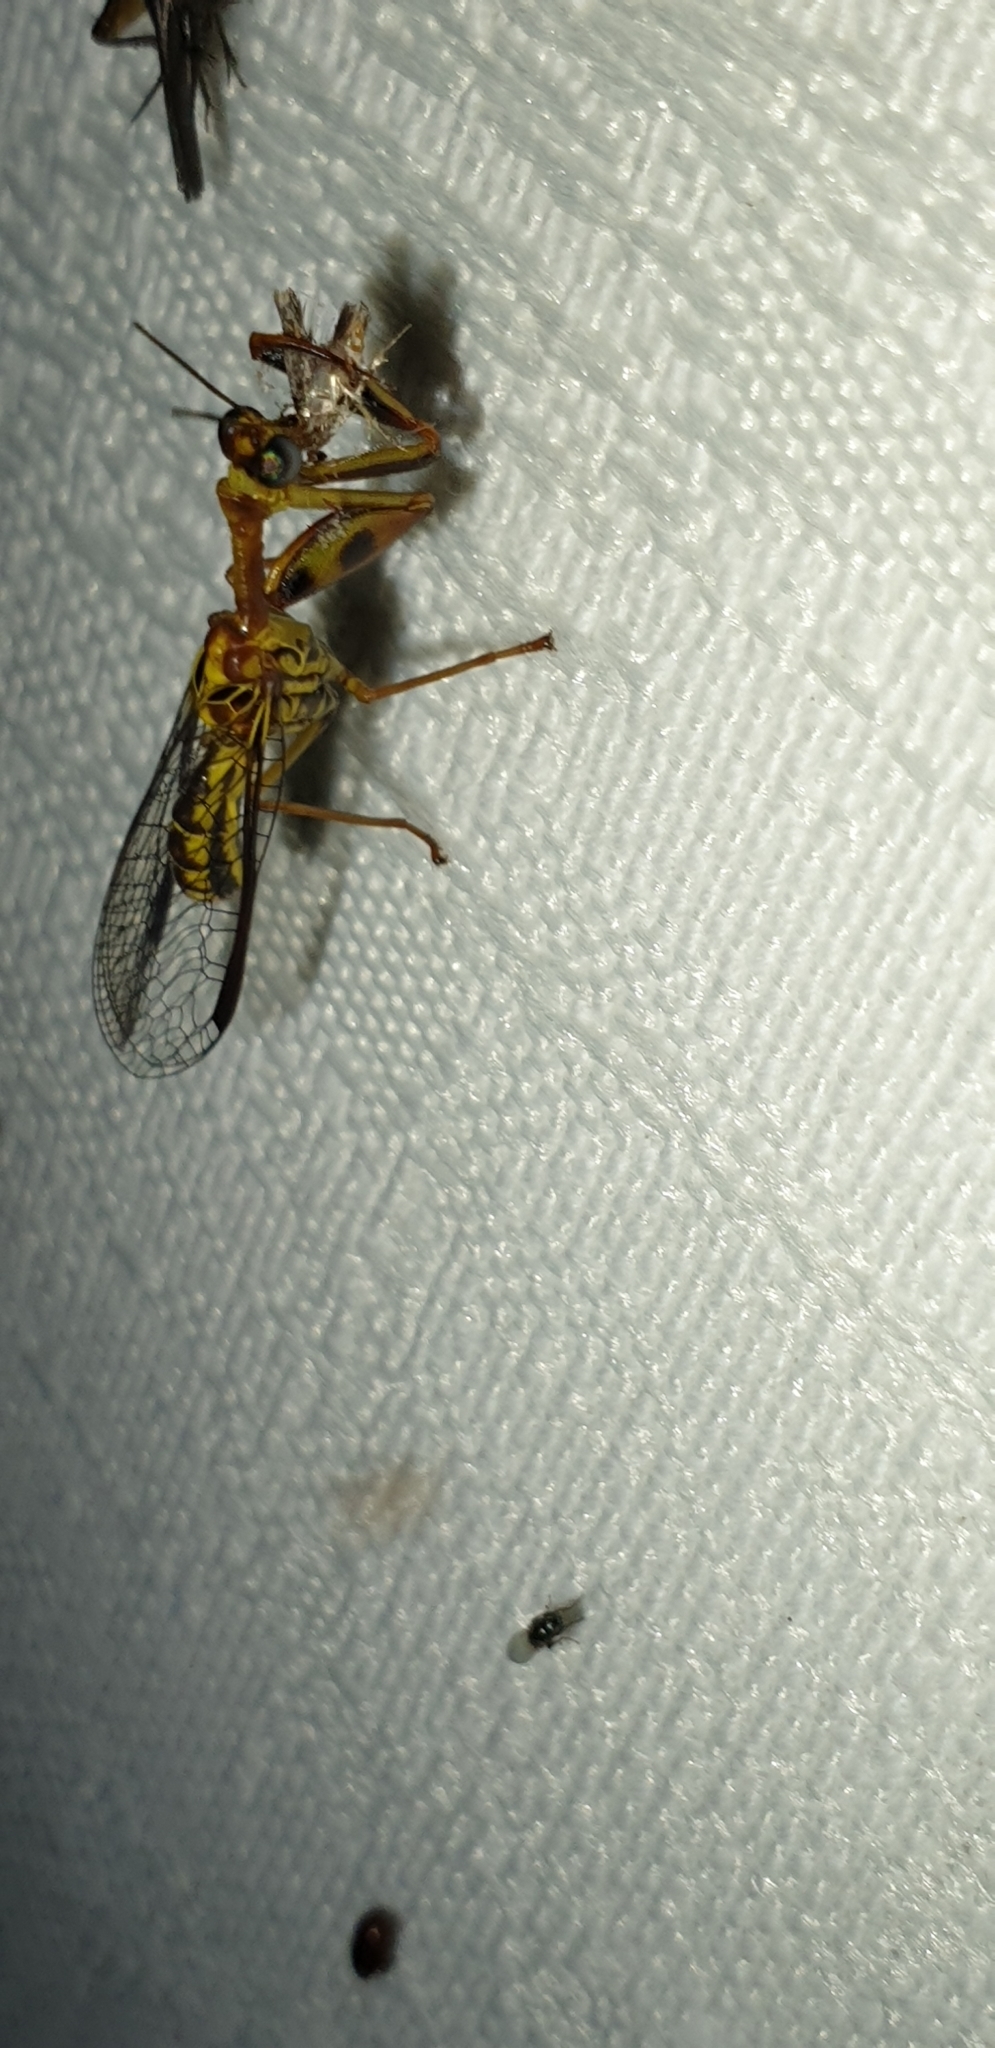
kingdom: Animalia
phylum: Arthropoda
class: Insecta
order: Neuroptera
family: Mantispidae
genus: Spaminta
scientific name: Spaminta minjerribae
